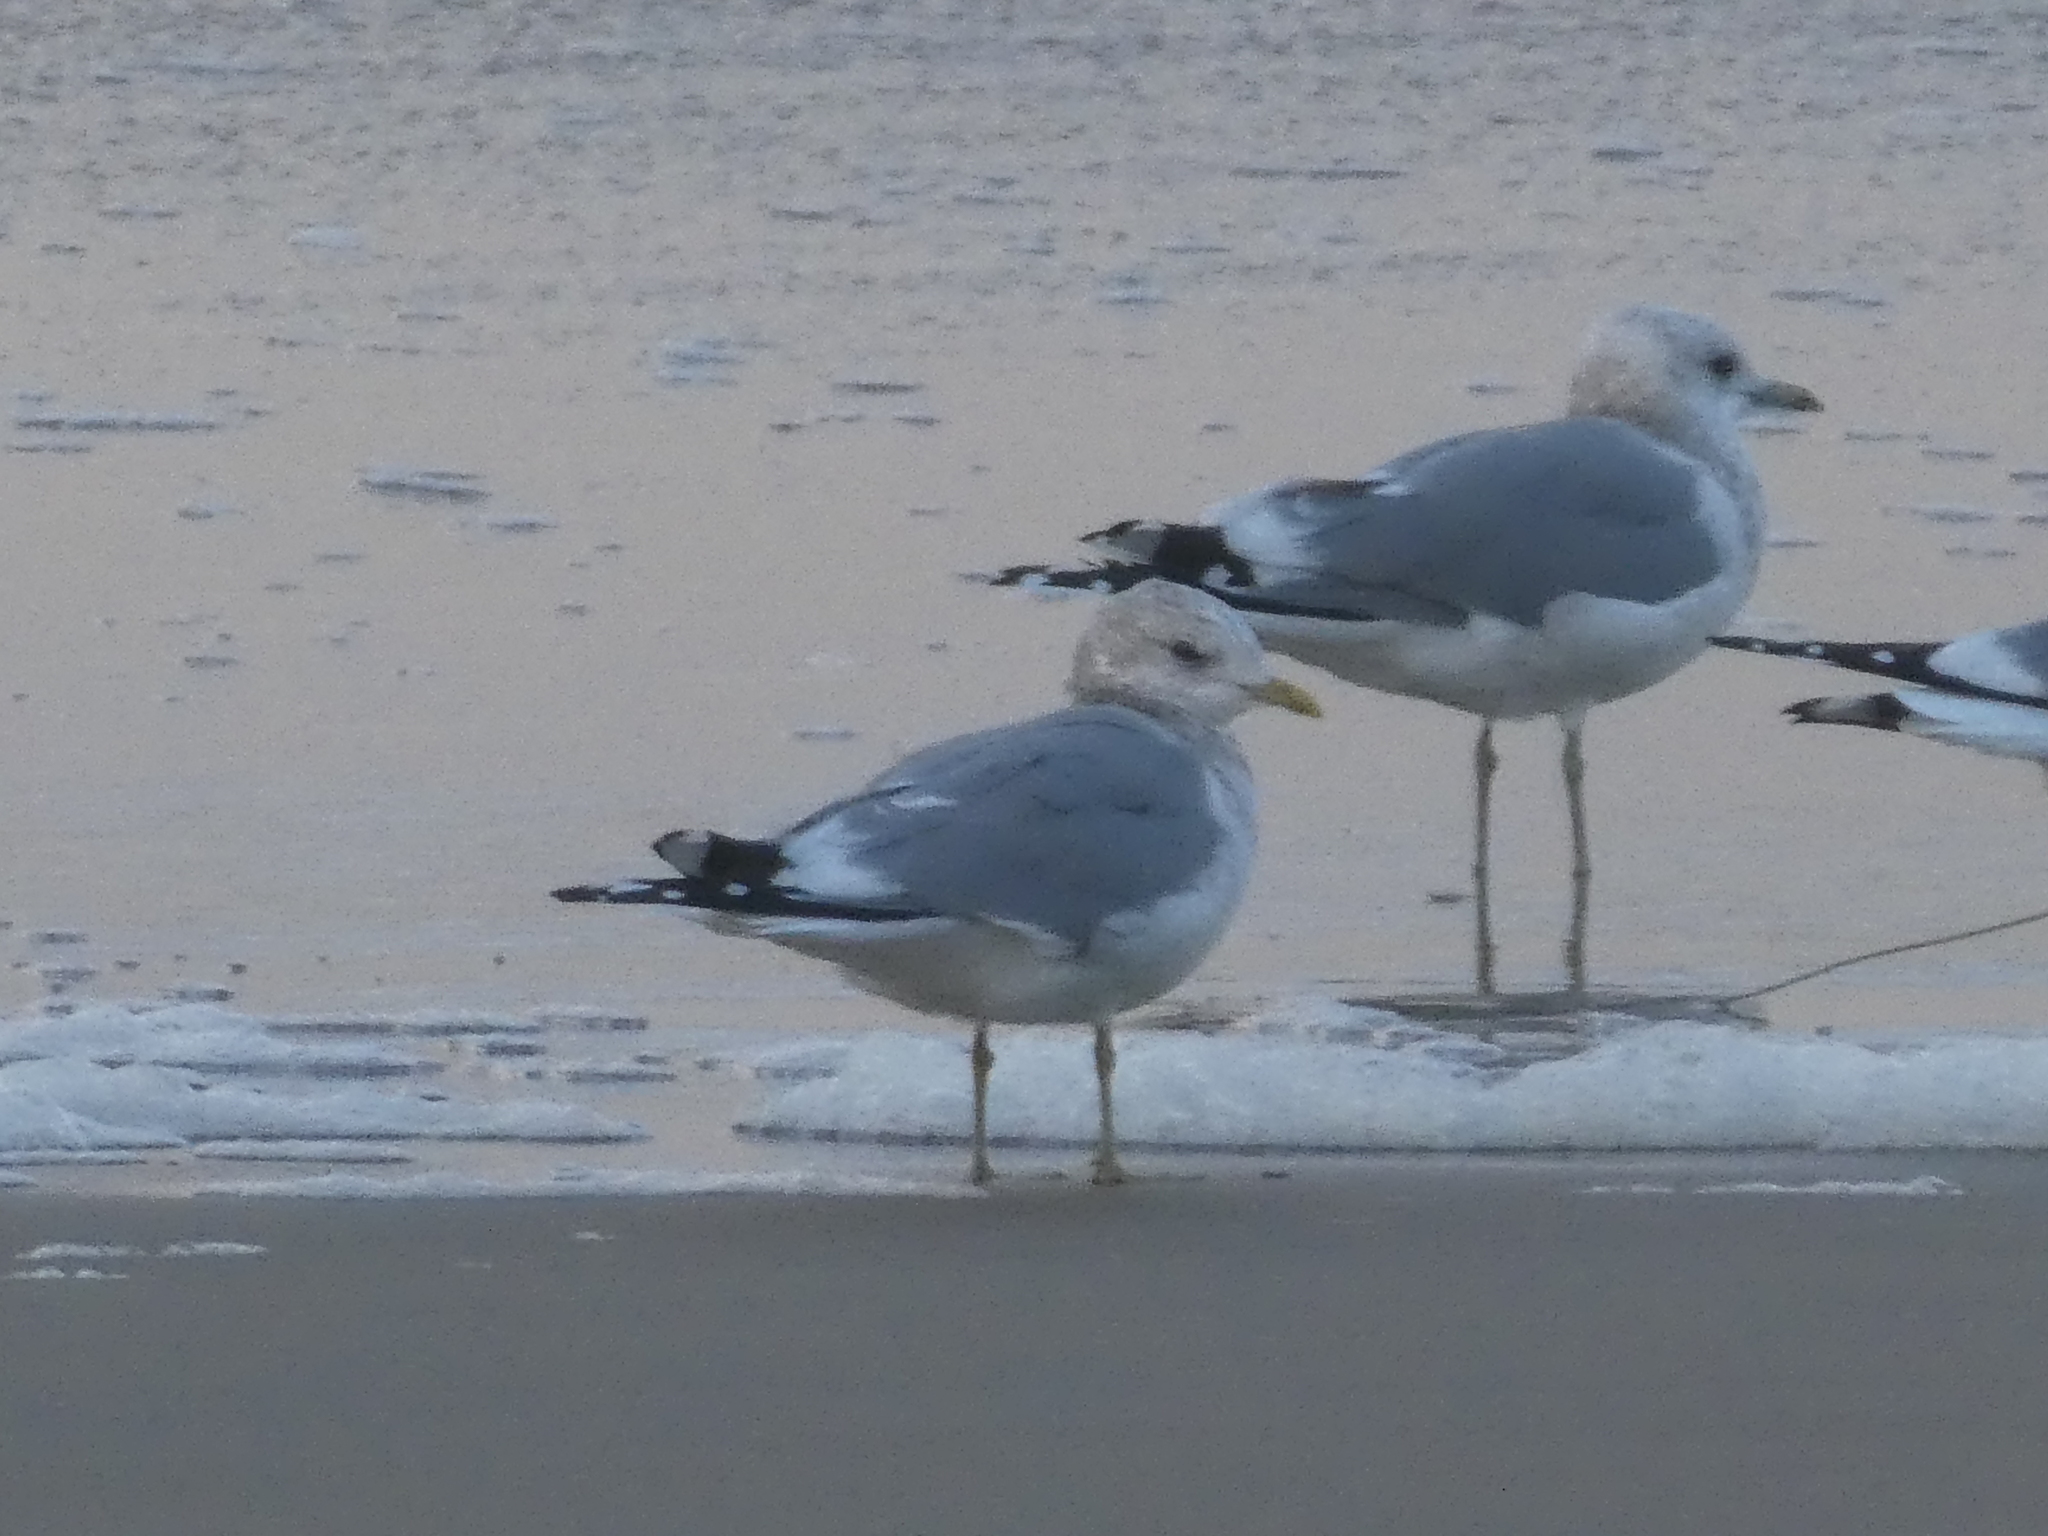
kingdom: Animalia
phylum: Chordata
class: Aves
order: Charadriiformes
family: Laridae
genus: Larus
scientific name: Larus brachyrhynchus
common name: Short-billed gull
